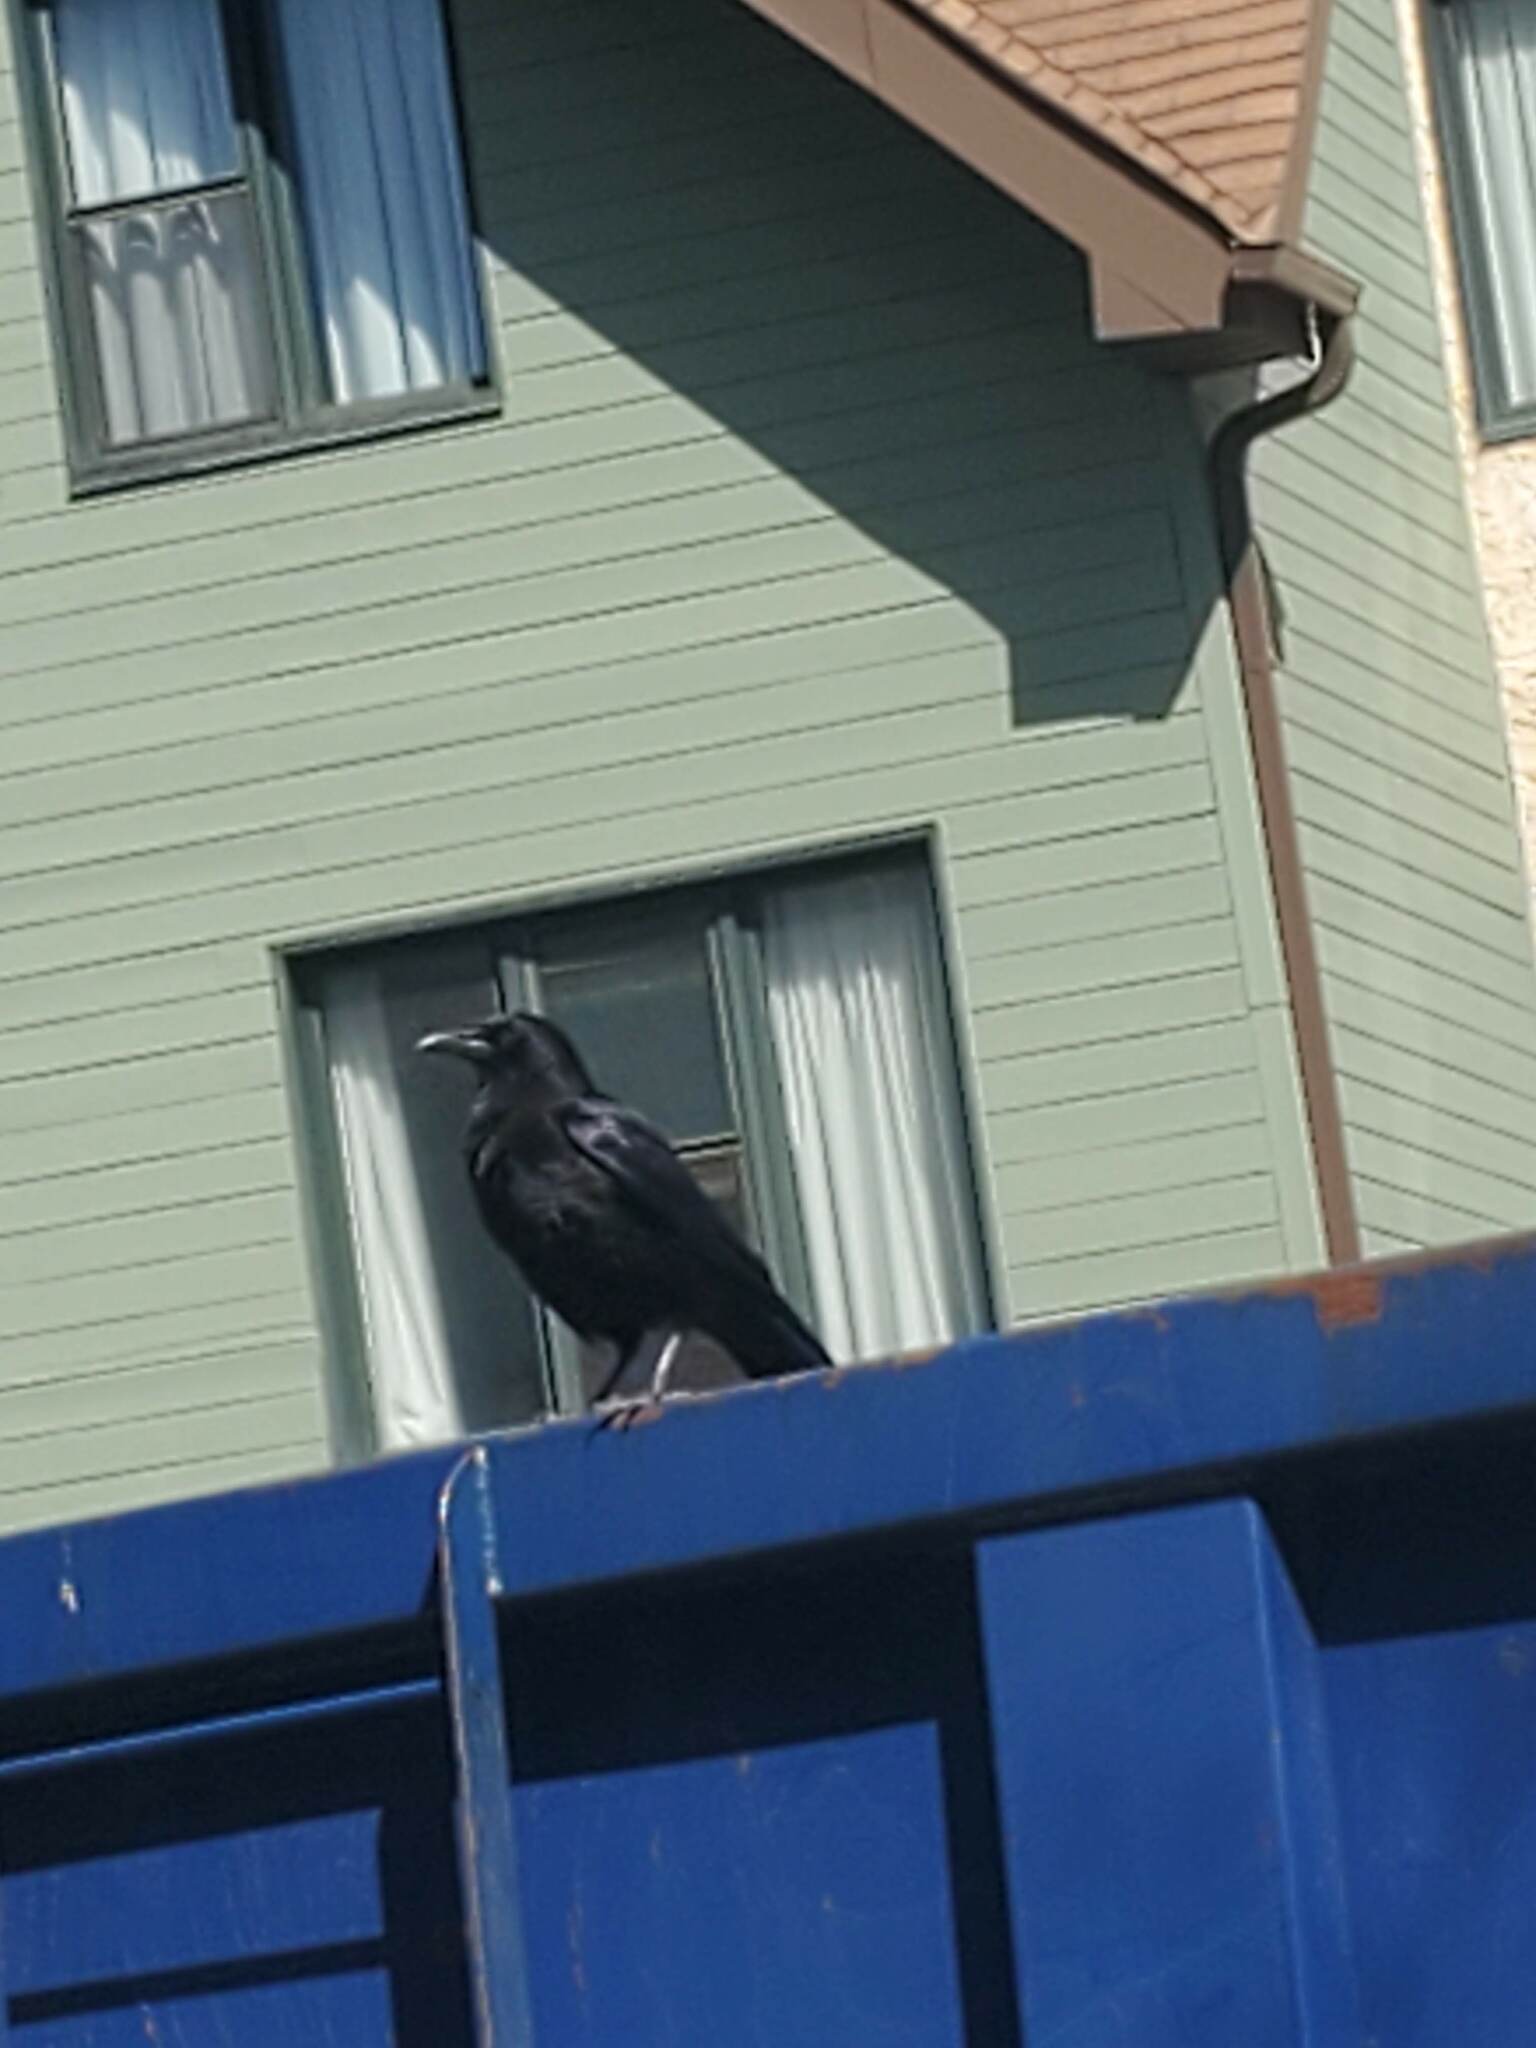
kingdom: Animalia
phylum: Chordata
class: Aves
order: Passeriformes
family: Corvidae
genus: Corvus
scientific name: Corvus brachyrhynchos
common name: American crow
